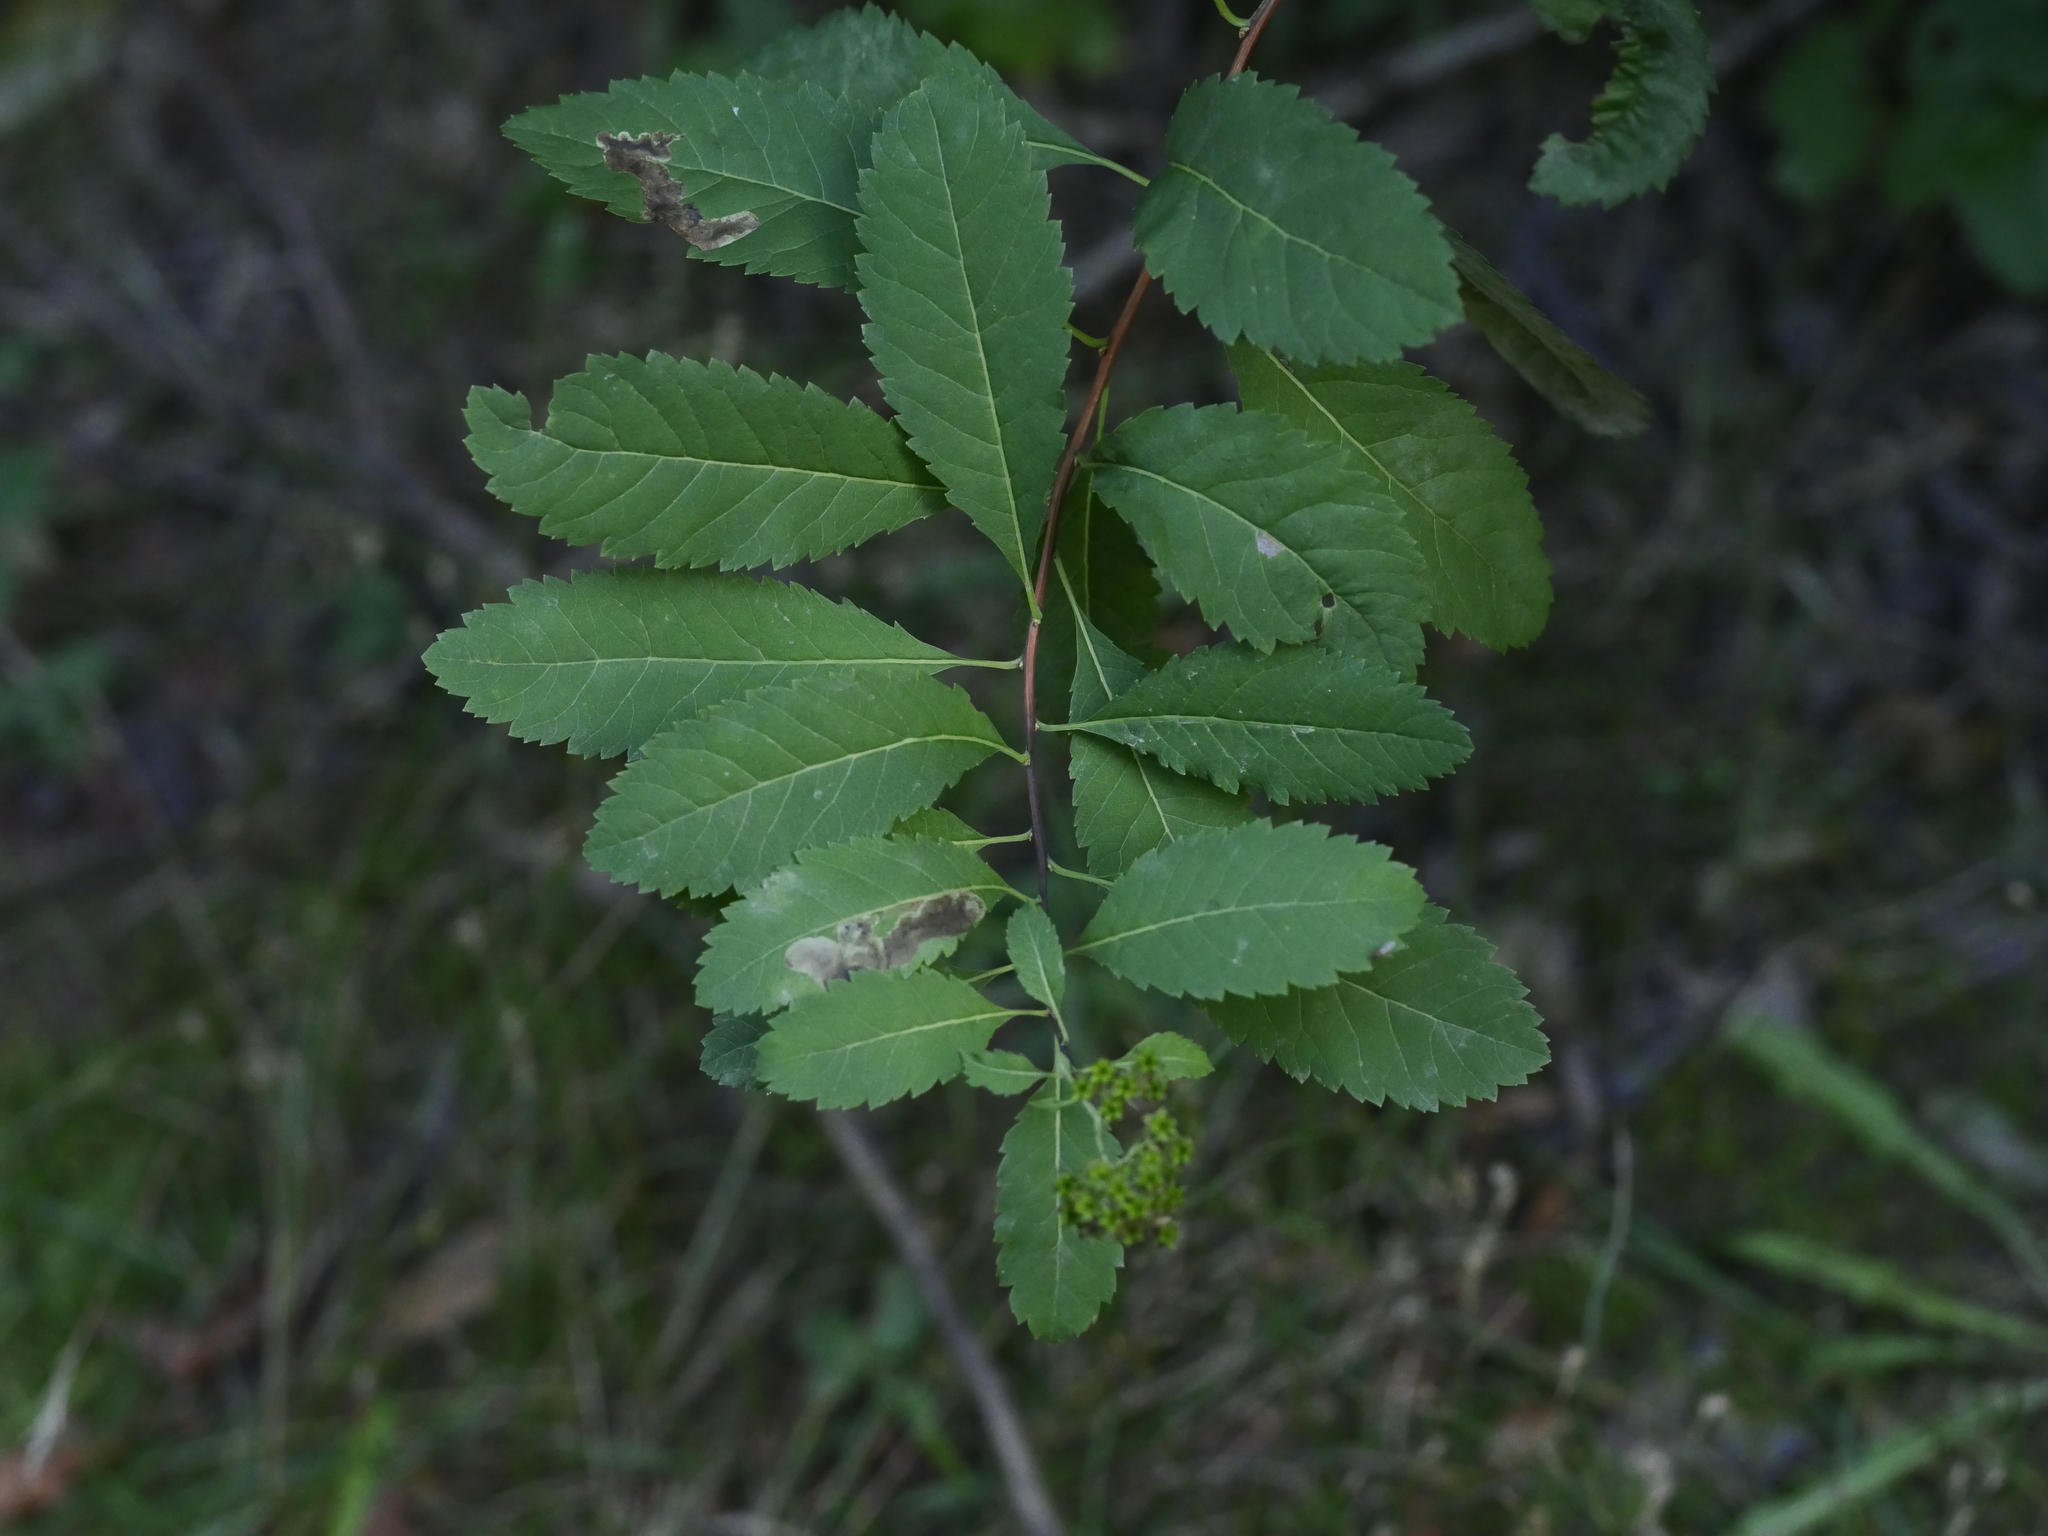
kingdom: Plantae
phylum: Tracheophyta
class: Magnoliopsida
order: Rosales
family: Rosaceae
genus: Spiraea
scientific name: Spiraea alba
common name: Pale bridewort
